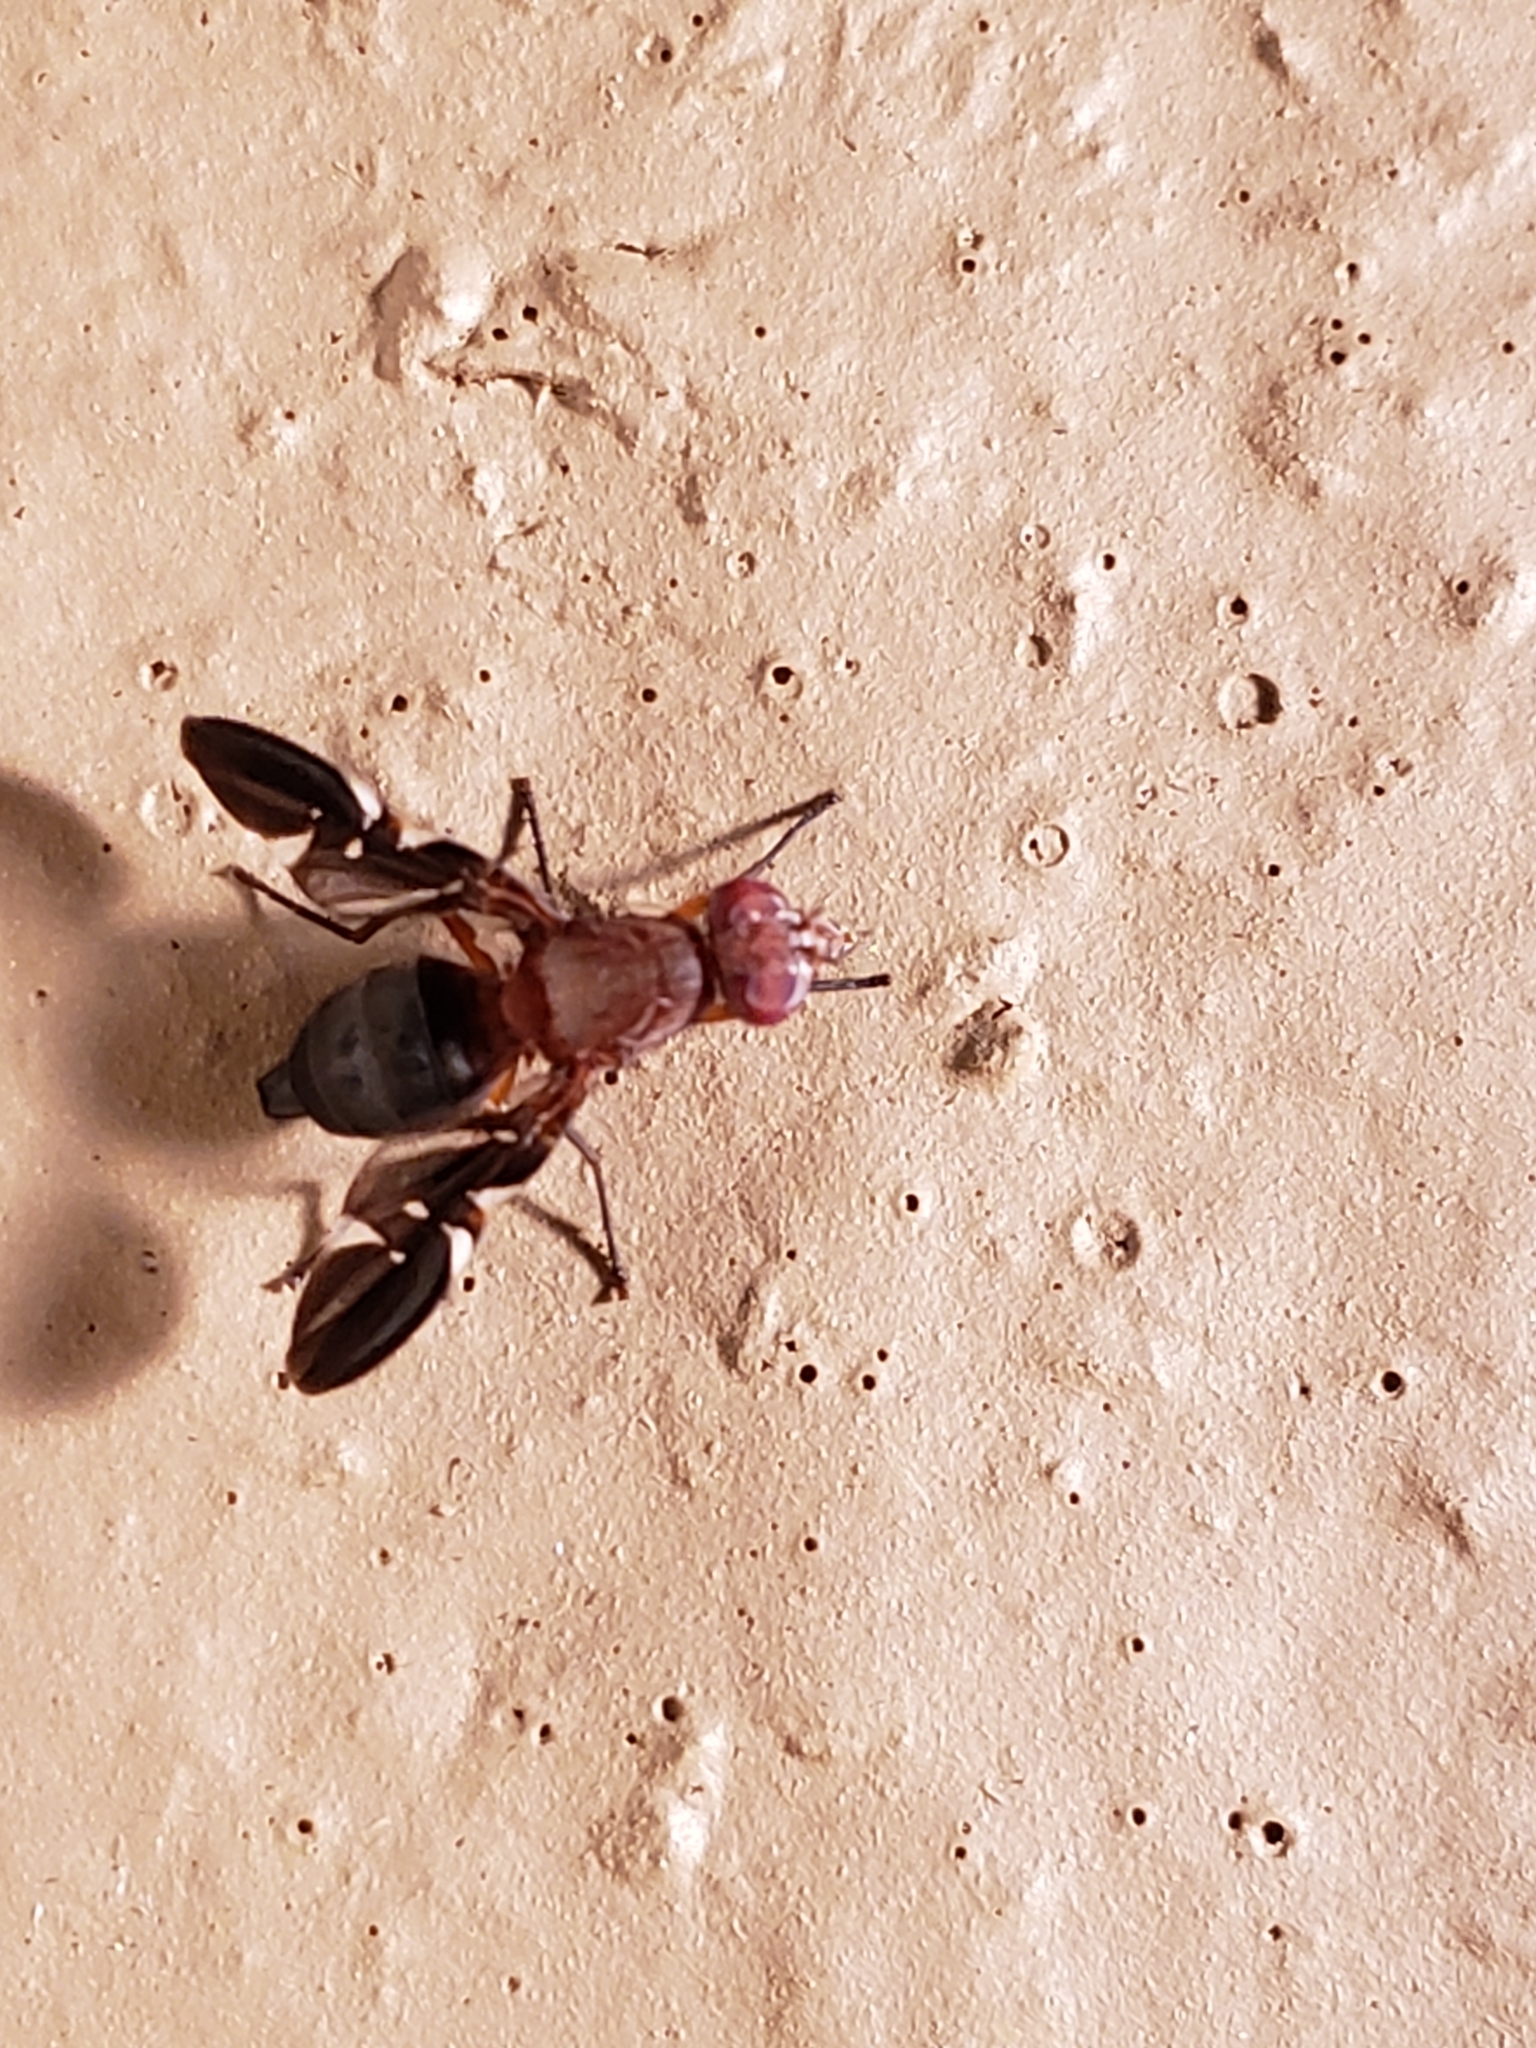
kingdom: Animalia
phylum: Arthropoda
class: Insecta
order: Diptera
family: Ulidiidae
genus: Delphinia
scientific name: Delphinia picta
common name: Common picture-winged fly
